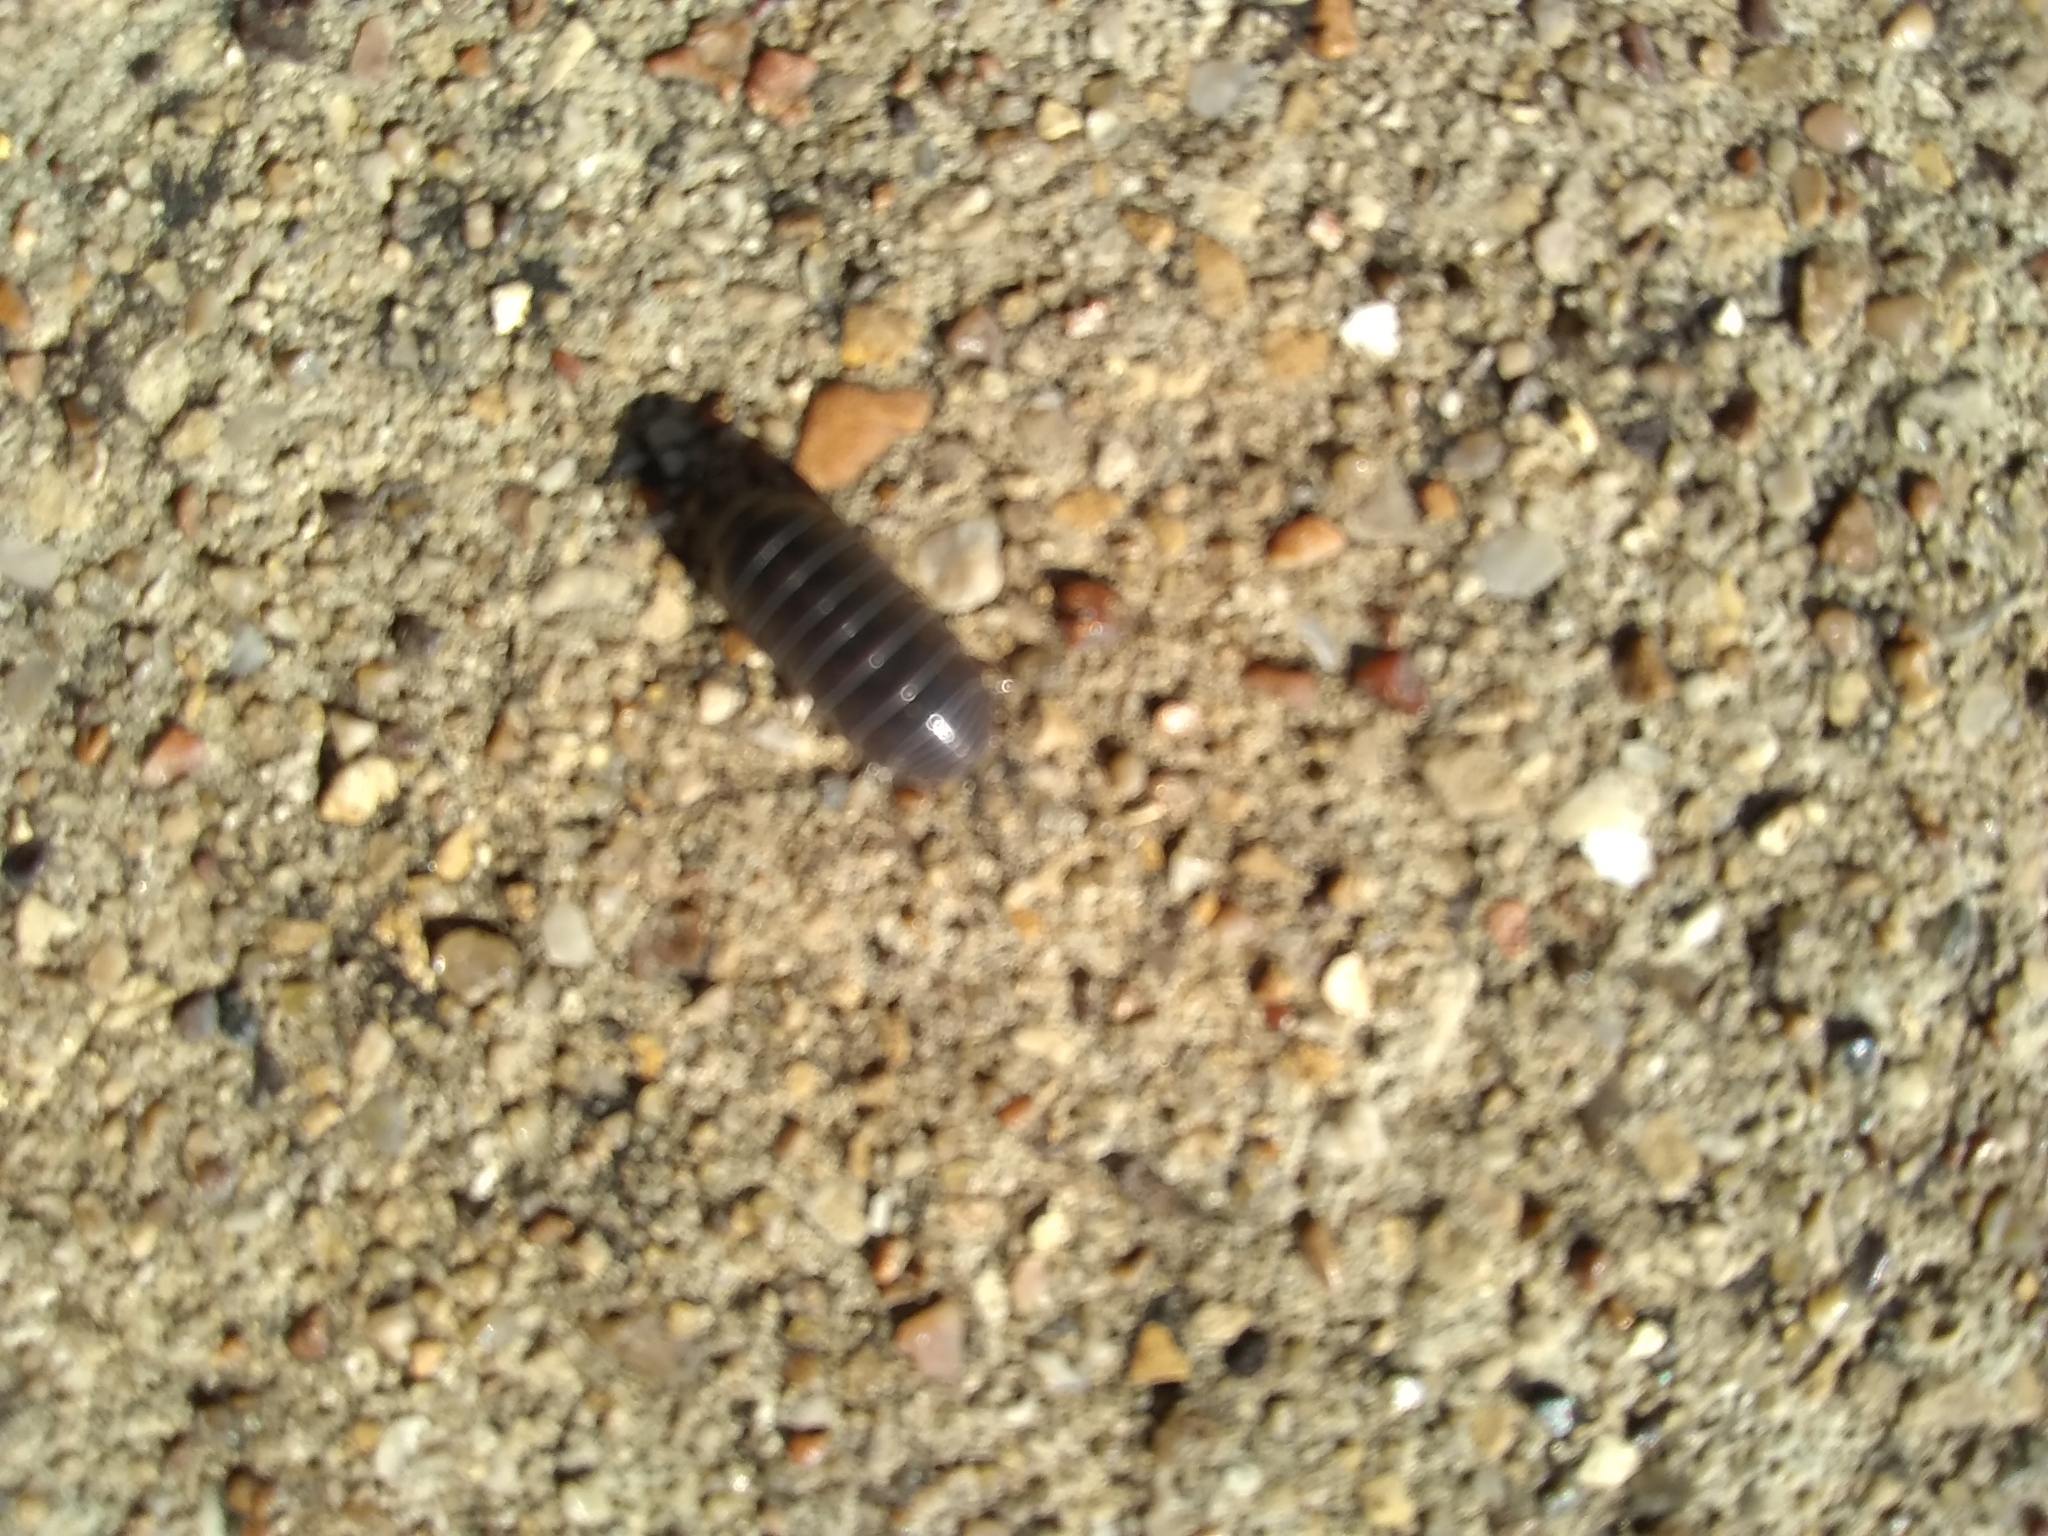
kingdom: Animalia
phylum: Arthropoda
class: Malacostraca
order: Isopoda
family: Armadillidiidae
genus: Armadillidium
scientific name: Armadillidium vulgare
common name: Common pill woodlouse
